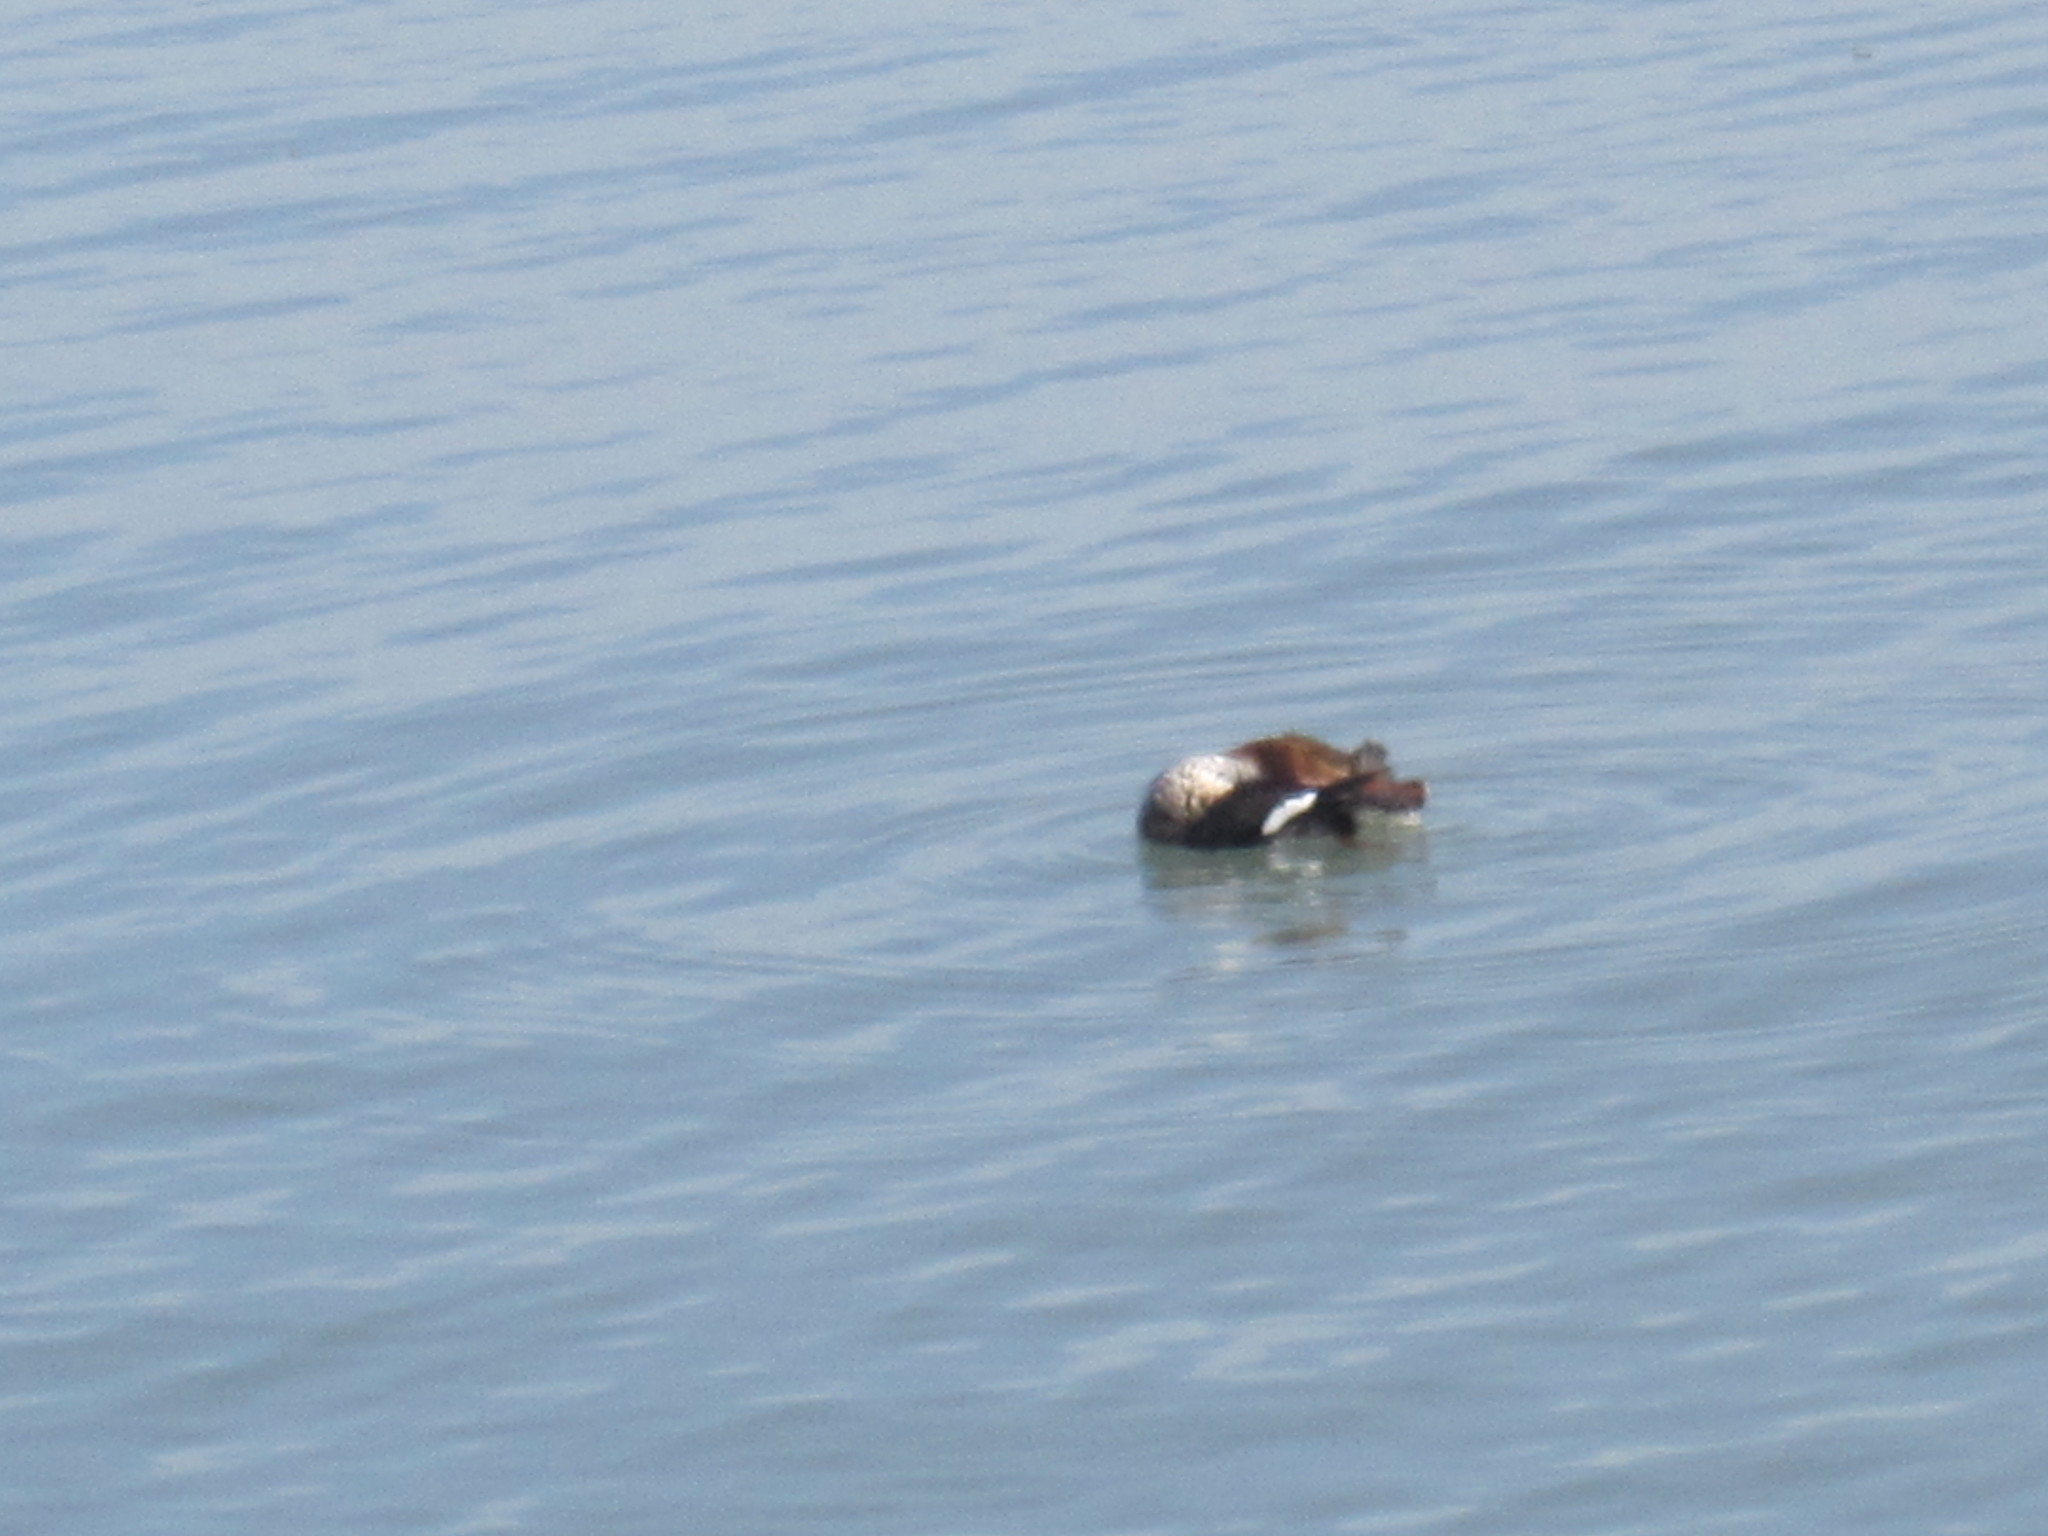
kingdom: Animalia
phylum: Chordata
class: Aves
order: Anseriformes
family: Anatidae
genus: Mergus
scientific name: Mergus serrator
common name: Red-breasted merganser
